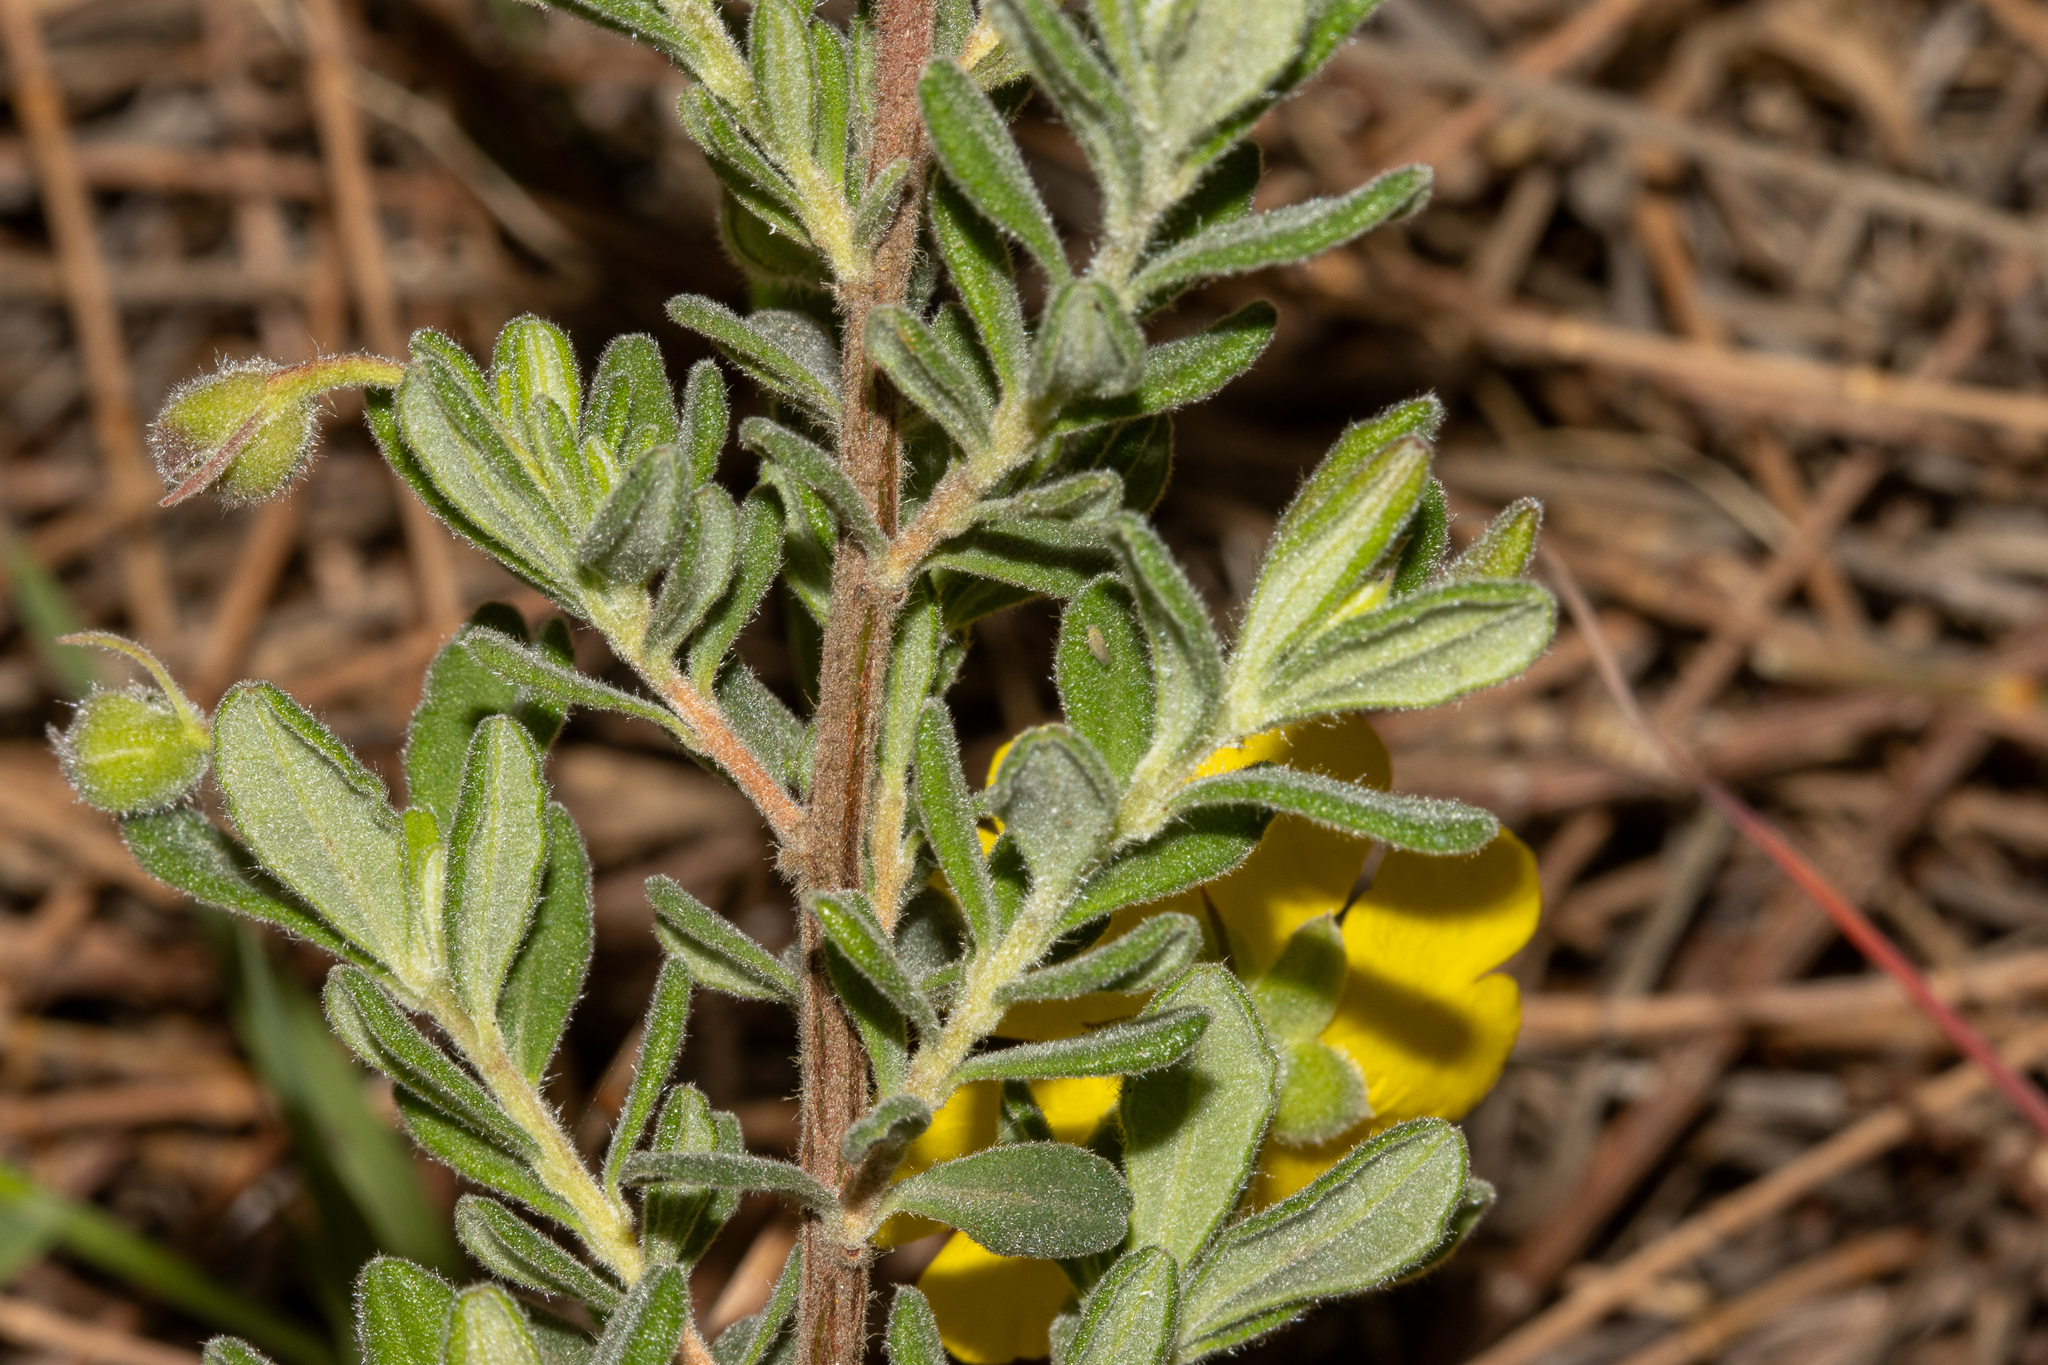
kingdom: Plantae
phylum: Tracheophyta
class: Magnoliopsida
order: Dilleniales
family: Dilleniaceae
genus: Hibbertia
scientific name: Hibbertia cinerea
